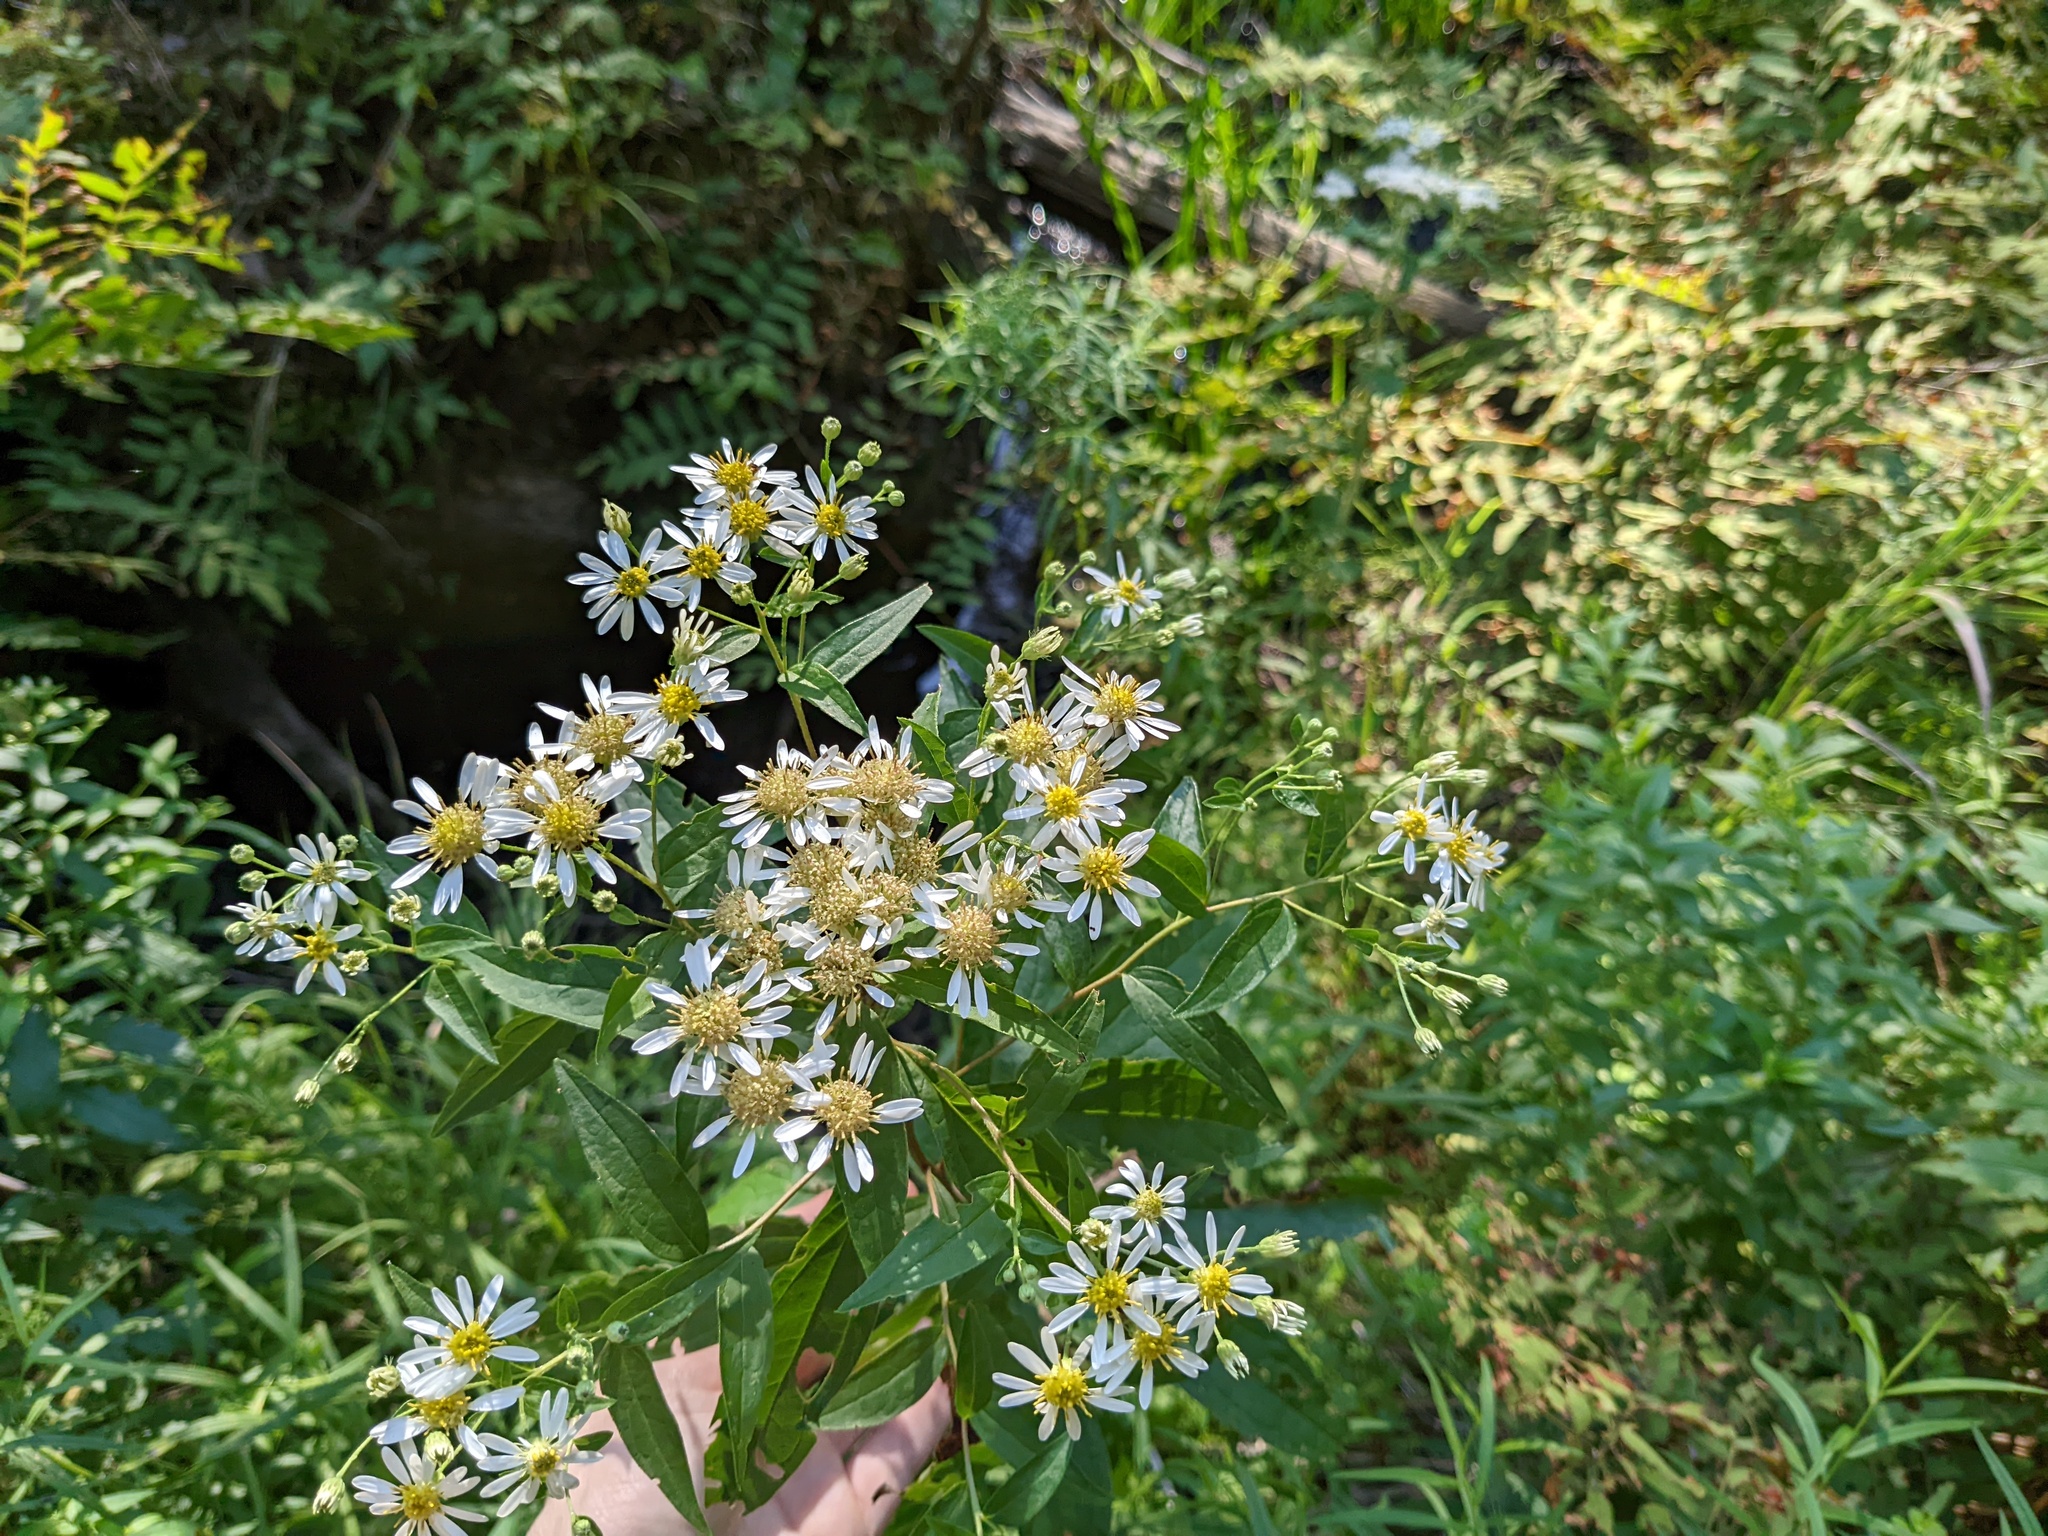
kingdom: Plantae
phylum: Tracheophyta
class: Magnoliopsida
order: Asterales
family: Asteraceae
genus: Doellingeria
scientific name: Doellingeria umbellata
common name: Flat-top white aster
